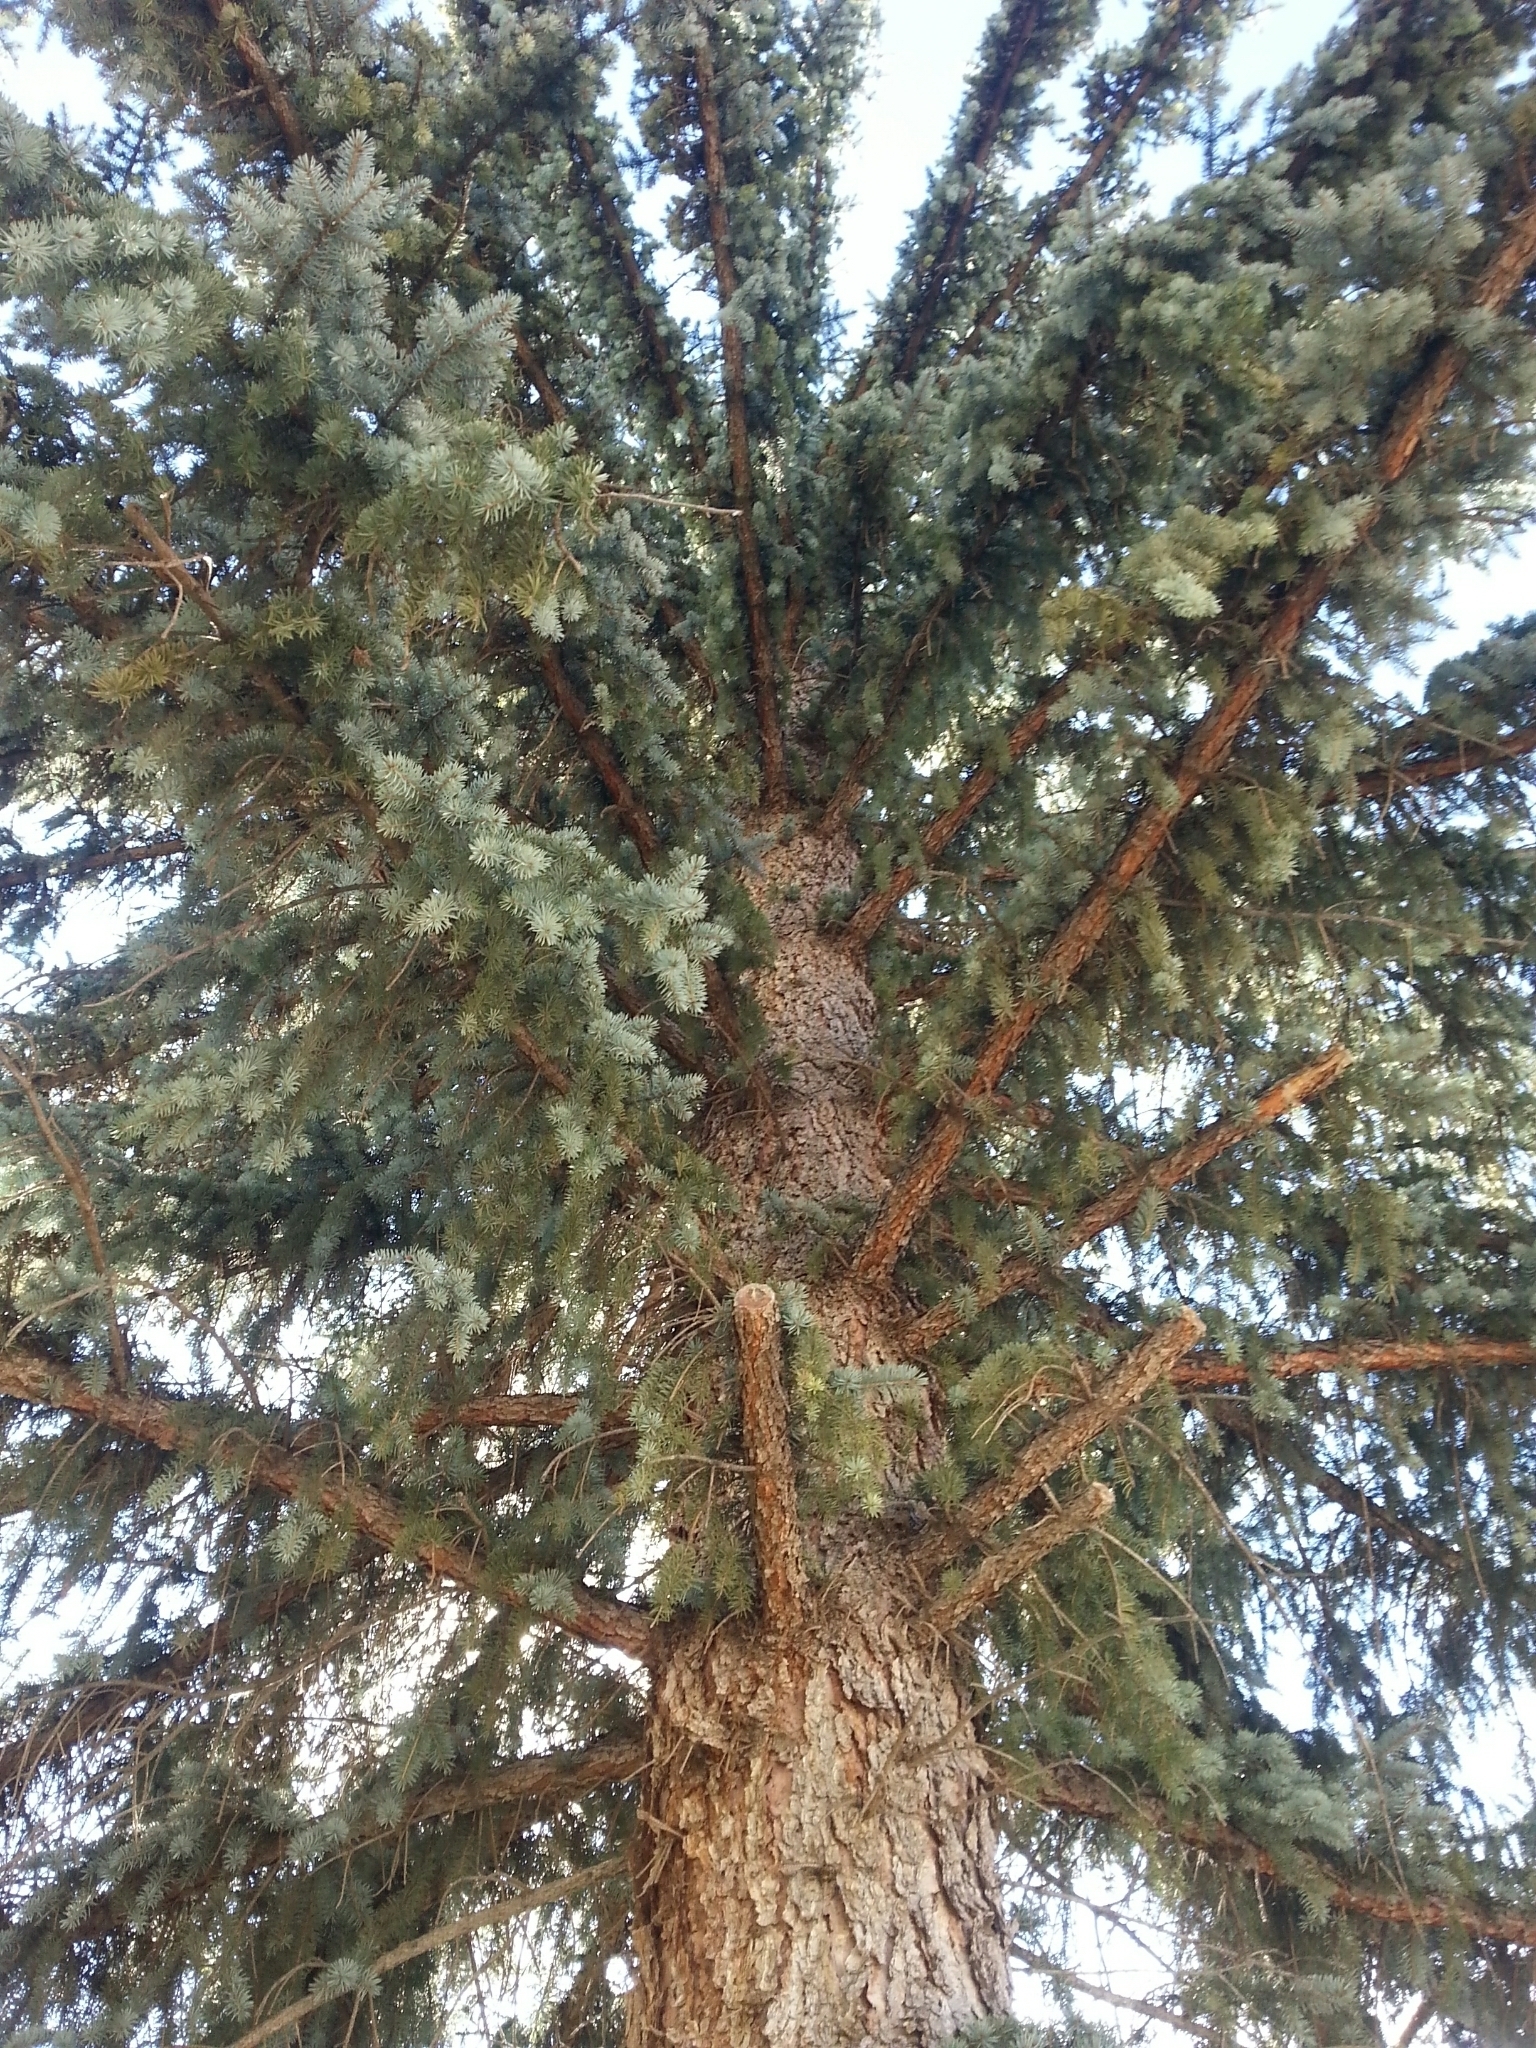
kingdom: Plantae
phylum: Tracheophyta
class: Pinopsida
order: Pinales
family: Pinaceae
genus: Picea
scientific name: Picea glauca
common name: White spruce
